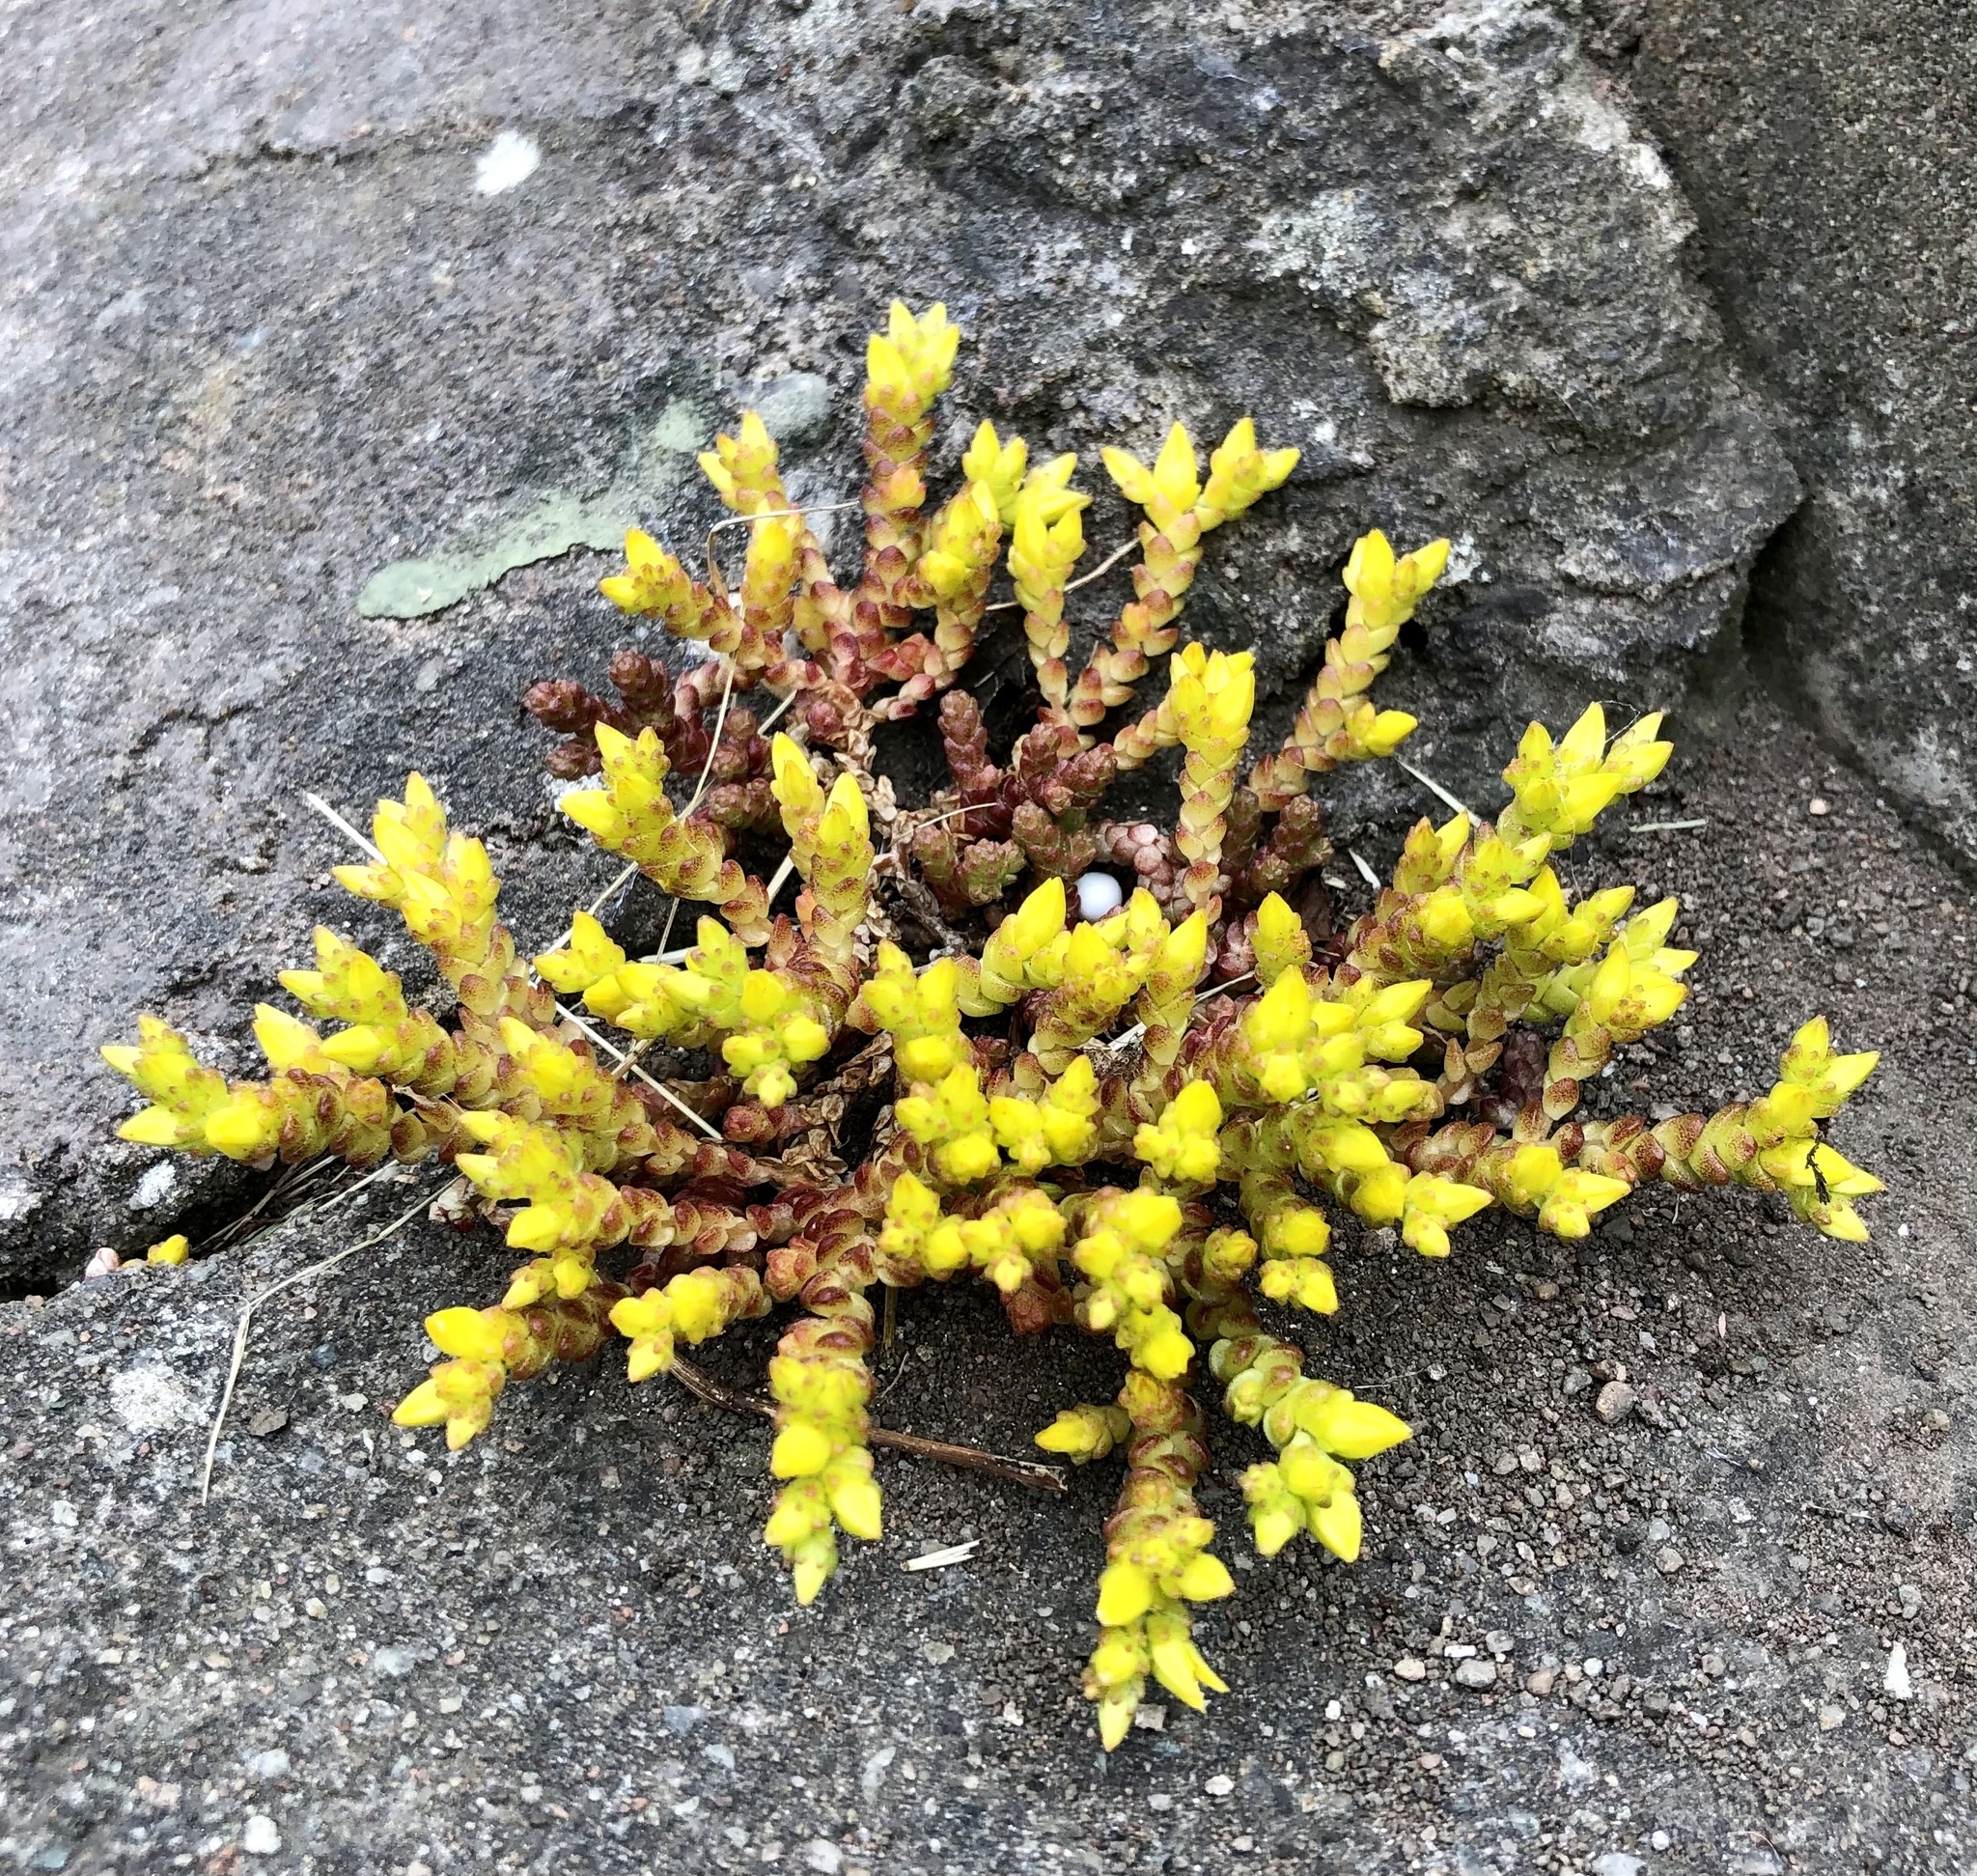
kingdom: Plantae
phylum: Tracheophyta
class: Magnoliopsida
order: Saxifragales
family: Crassulaceae
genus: Sedum
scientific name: Sedum acre
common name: Biting stonecrop
